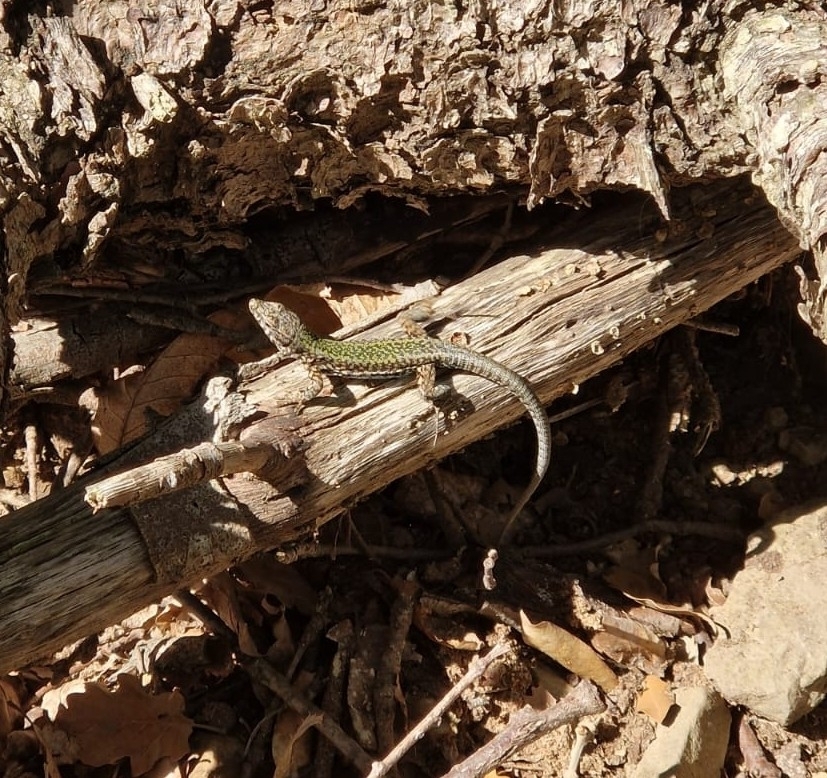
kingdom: Animalia
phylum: Chordata
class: Squamata
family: Lacertidae
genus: Podarcis
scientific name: Podarcis muralis
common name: Common wall lizard
